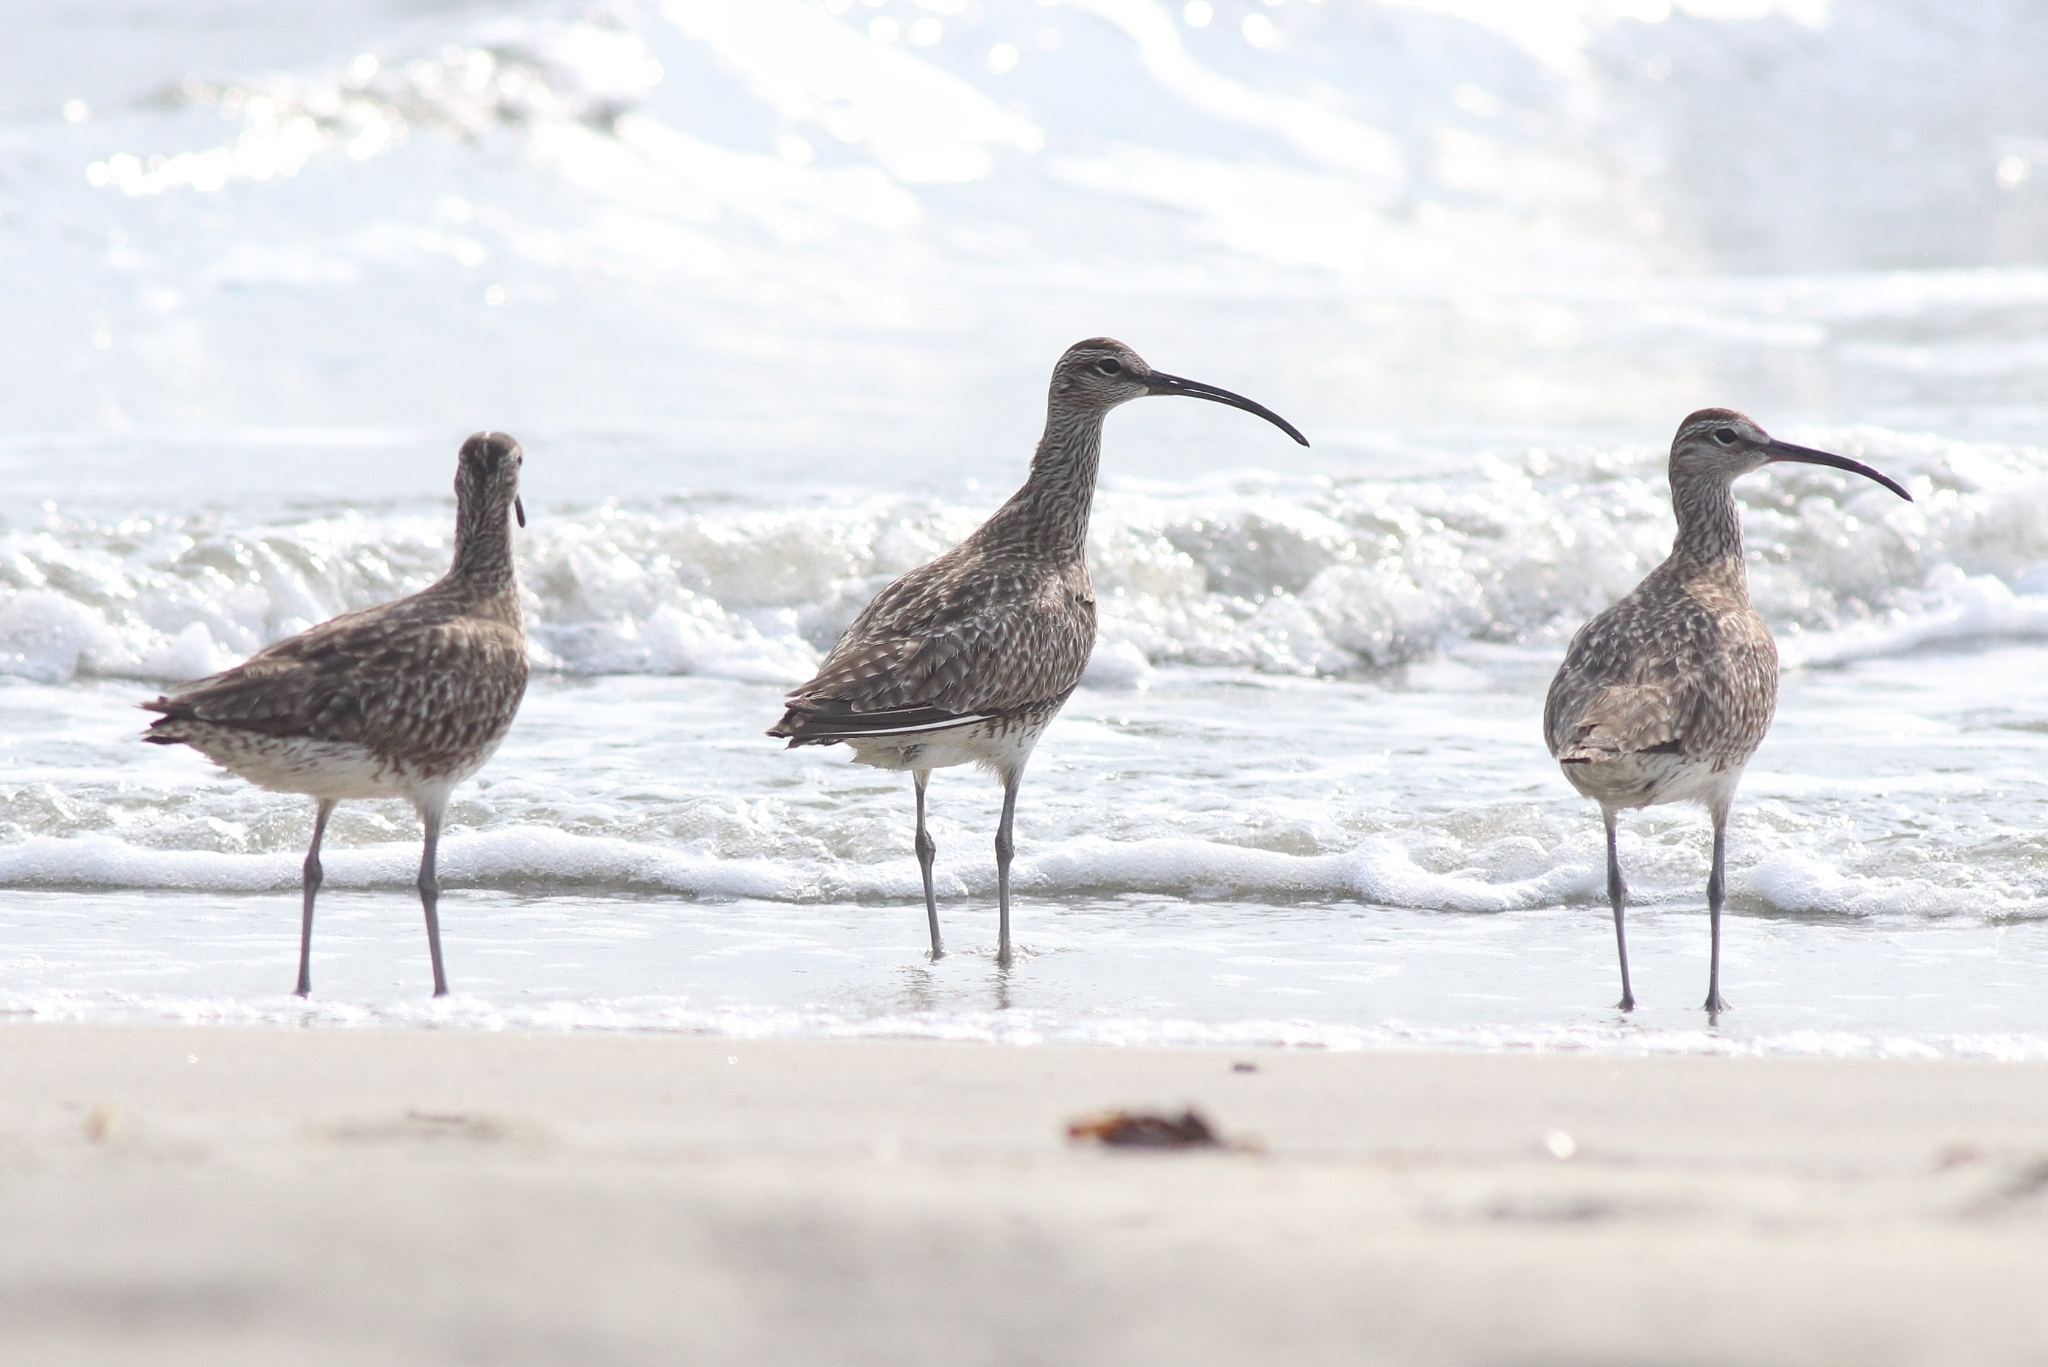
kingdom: Animalia
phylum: Chordata
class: Aves
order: Charadriiformes
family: Scolopacidae
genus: Numenius
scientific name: Numenius phaeopus
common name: Whimbrel
